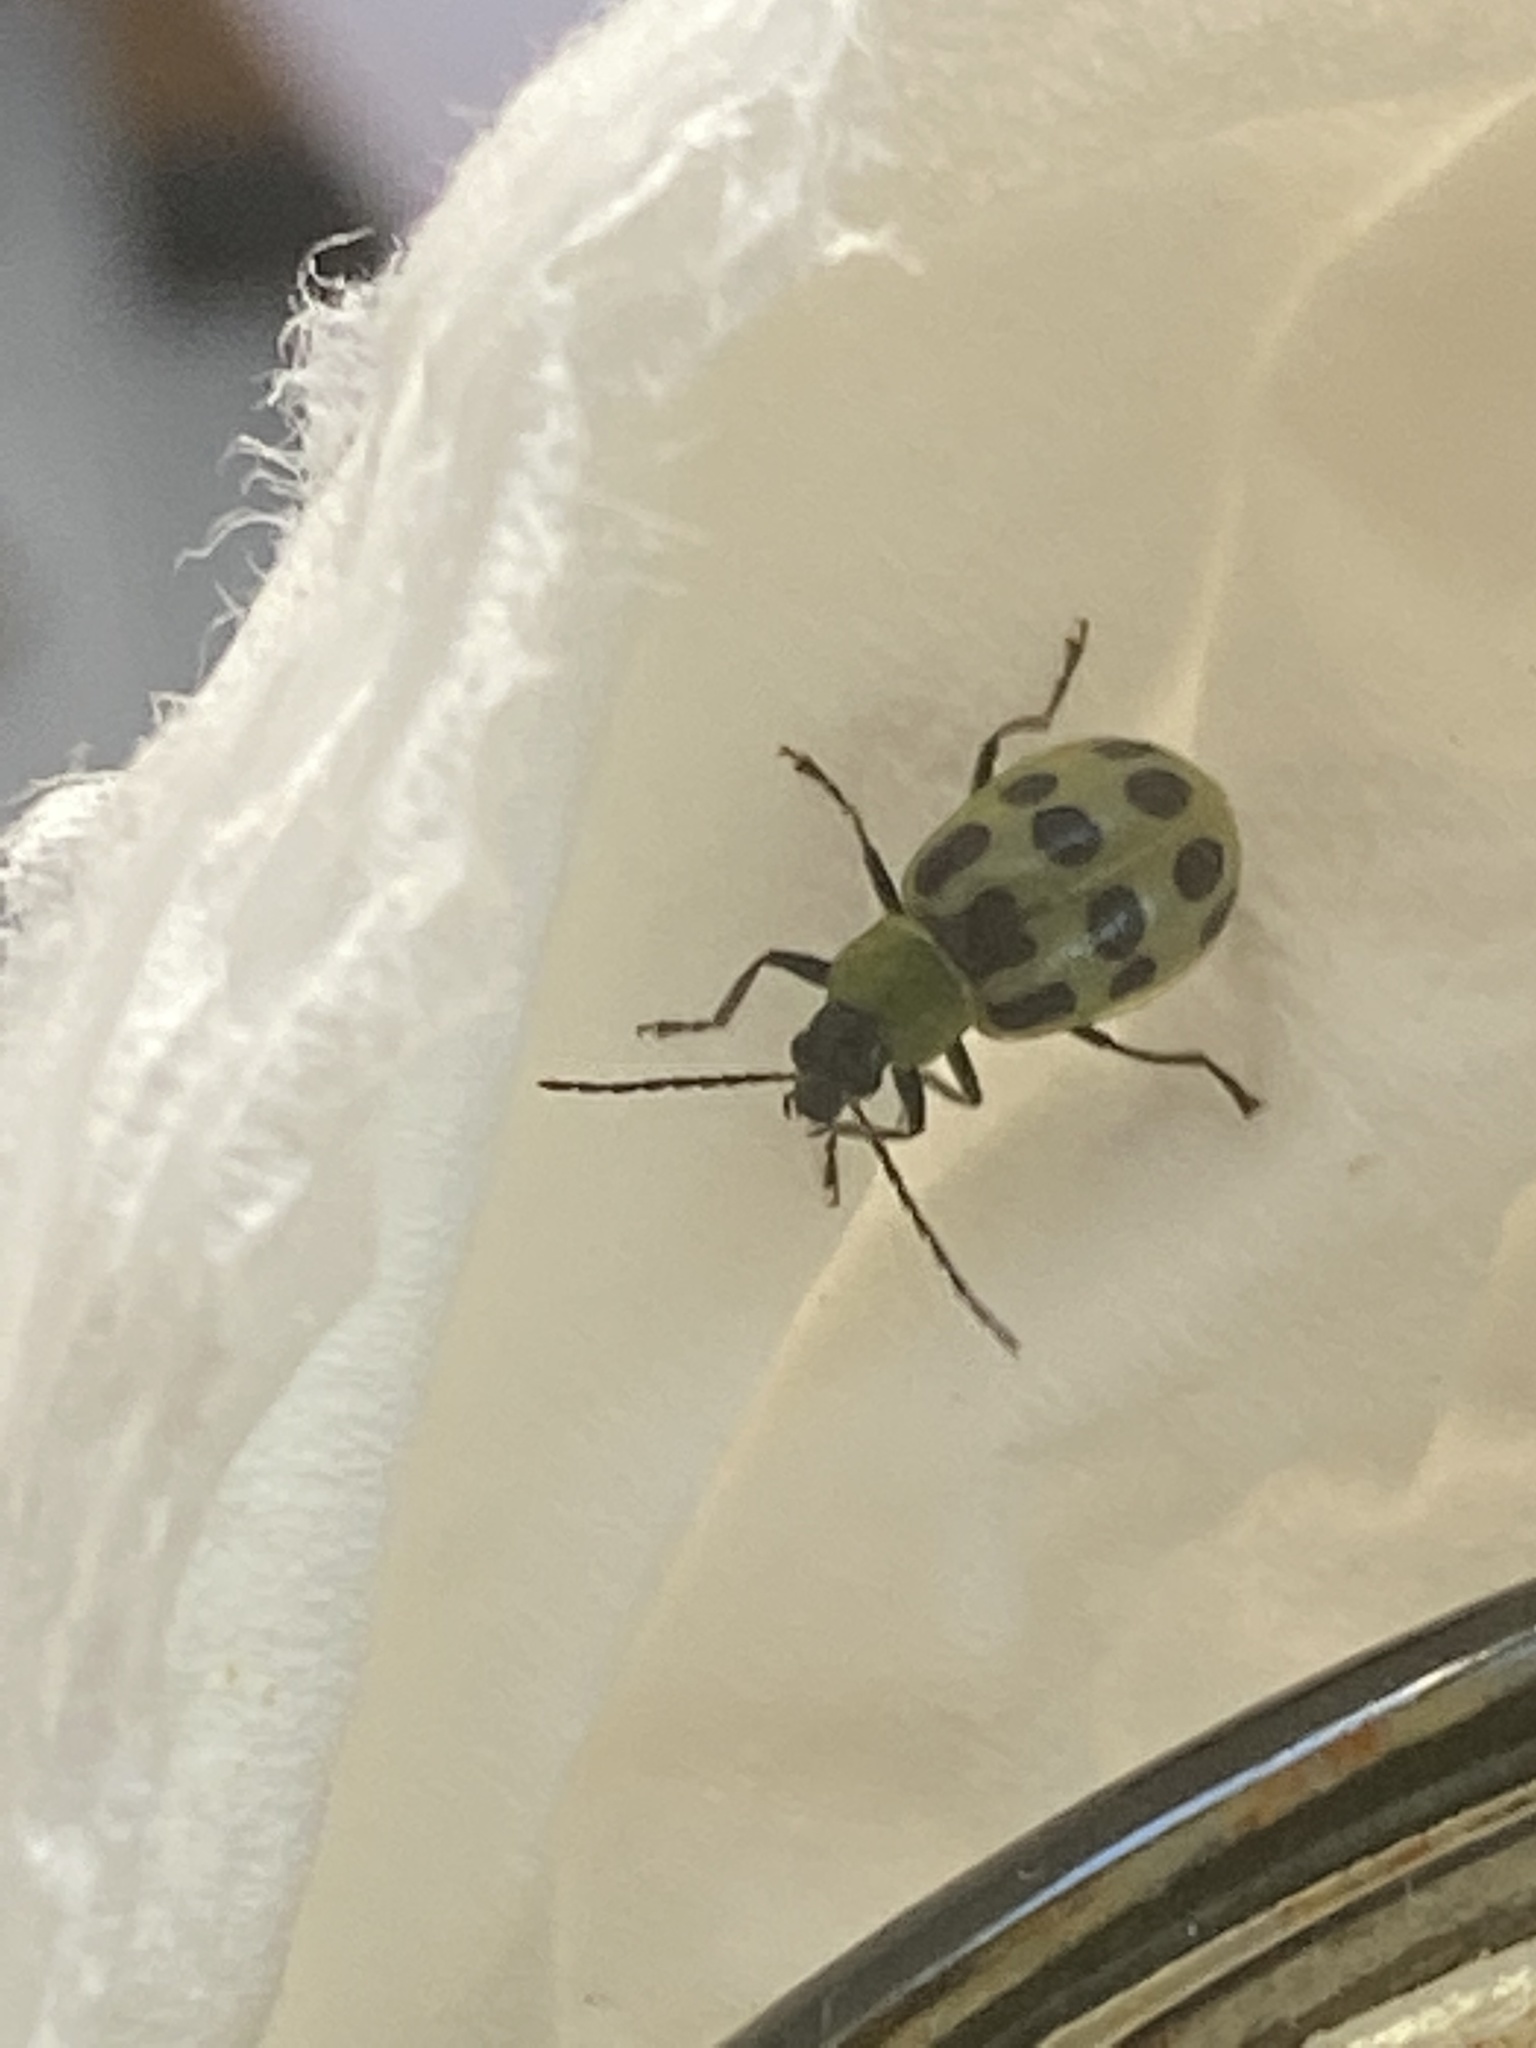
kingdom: Animalia
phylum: Arthropoda
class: Insecta
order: Coleoptera
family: Chrysomelidae
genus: Diabrotica
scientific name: Diabrotica undecimpunctata
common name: Spotted cucumber beetle
